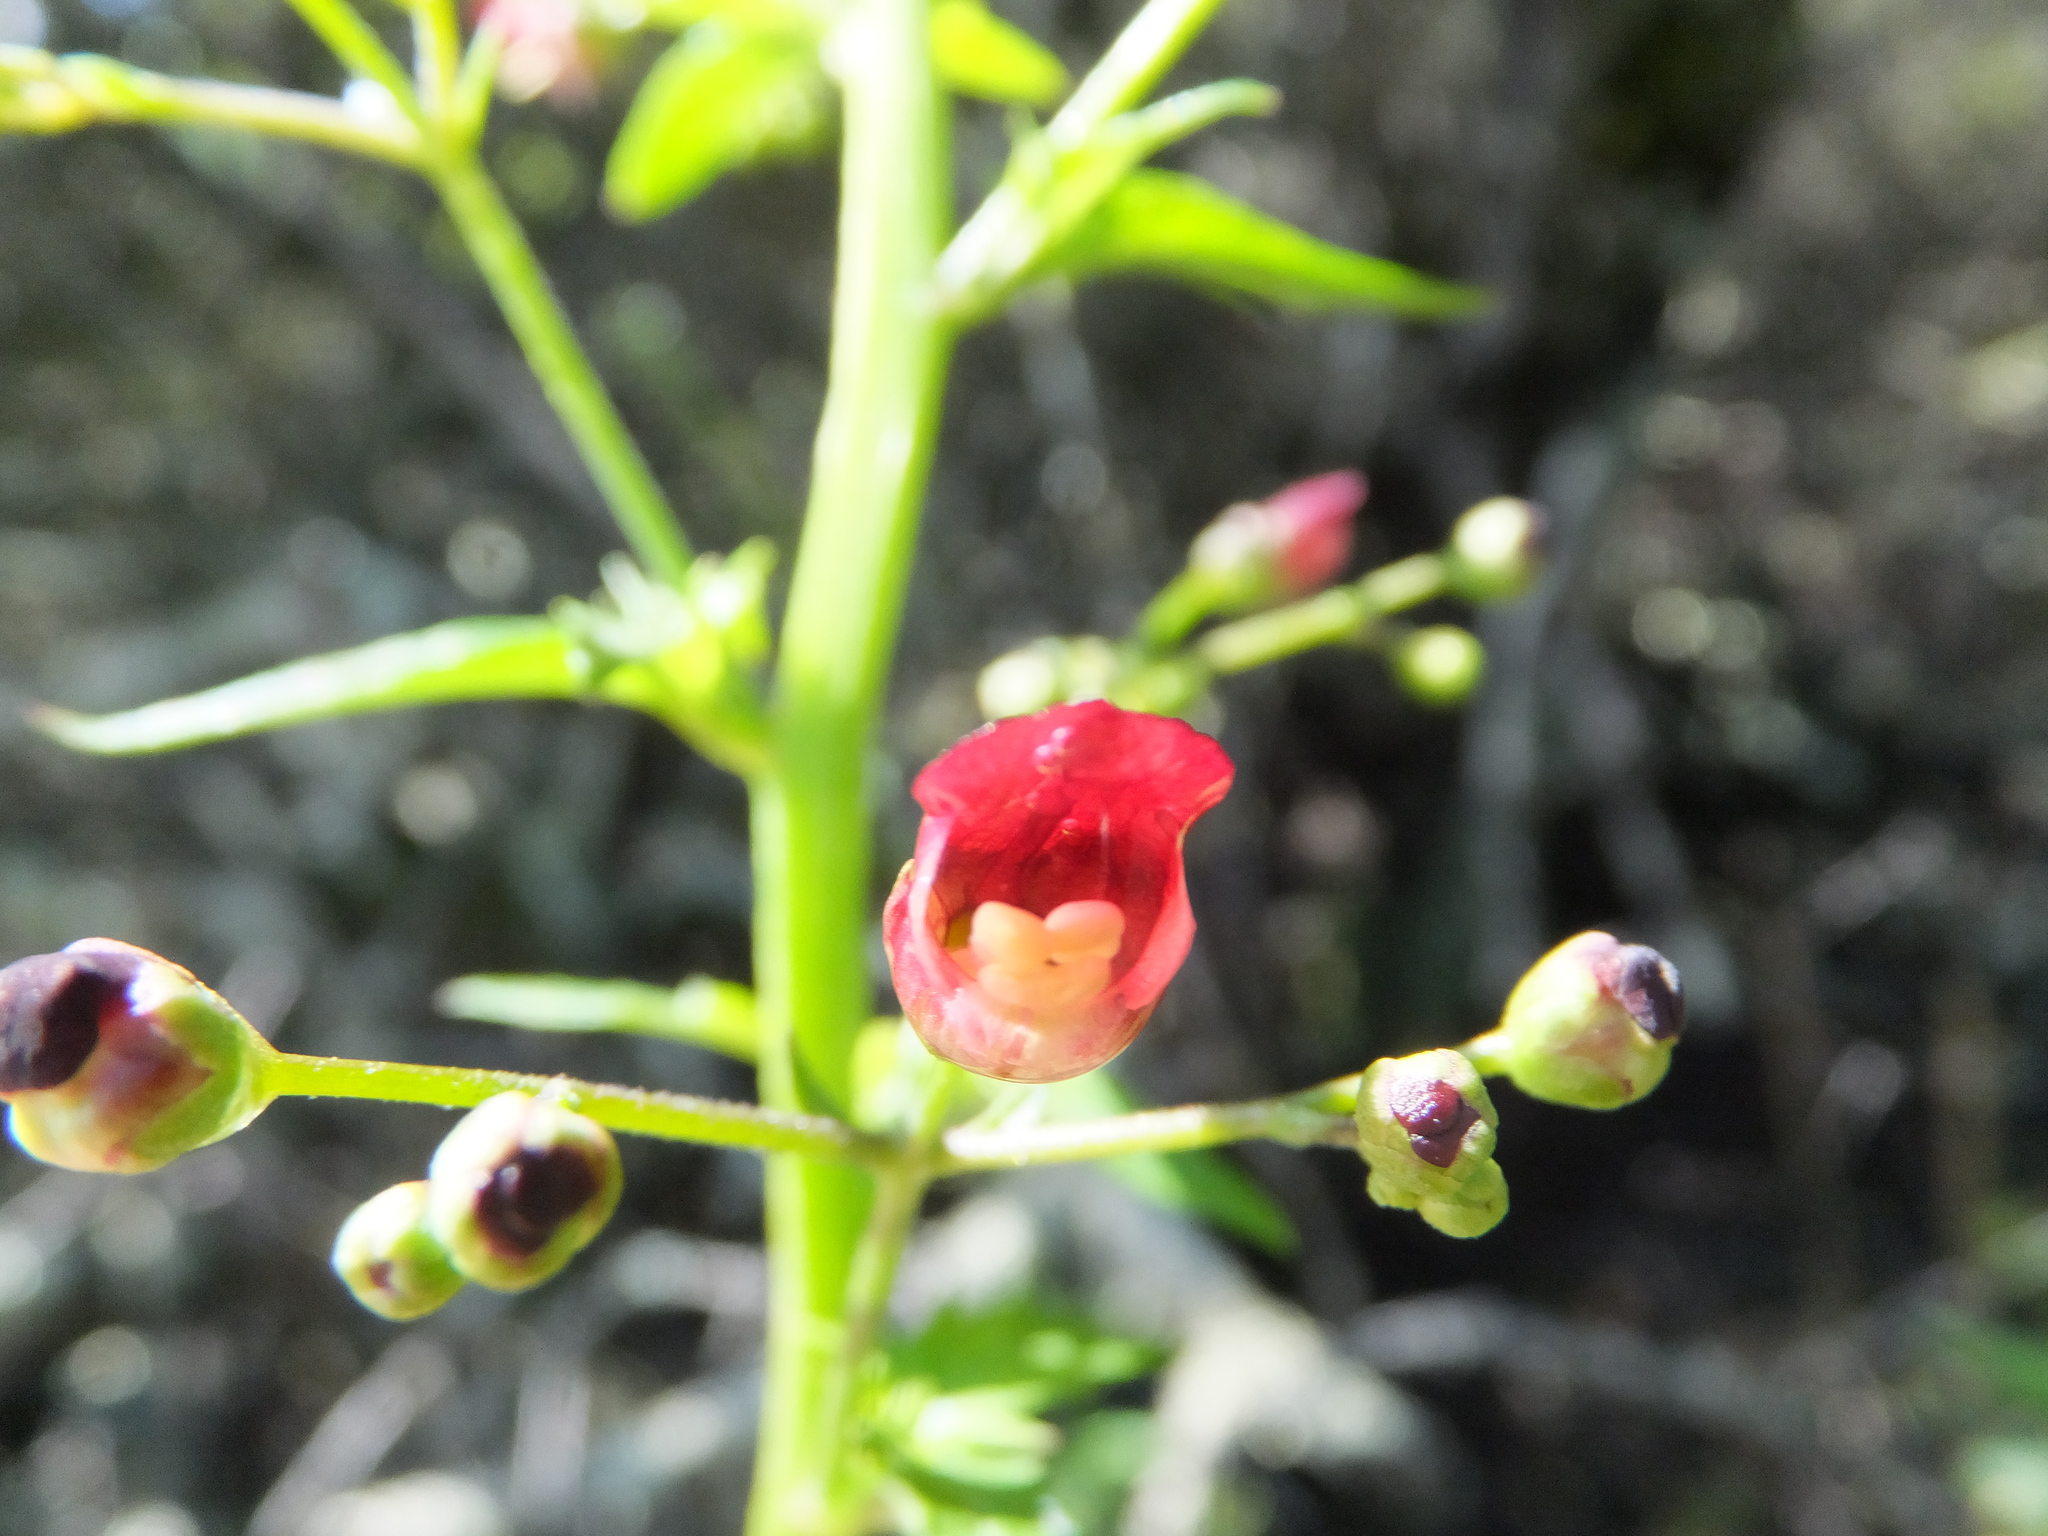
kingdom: Plantae
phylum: Tracheophyta
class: Magnoliopsida
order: Lamiales
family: Scrophulariaceae
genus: Scrophularia
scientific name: Scrophularia californica
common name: California figwort
